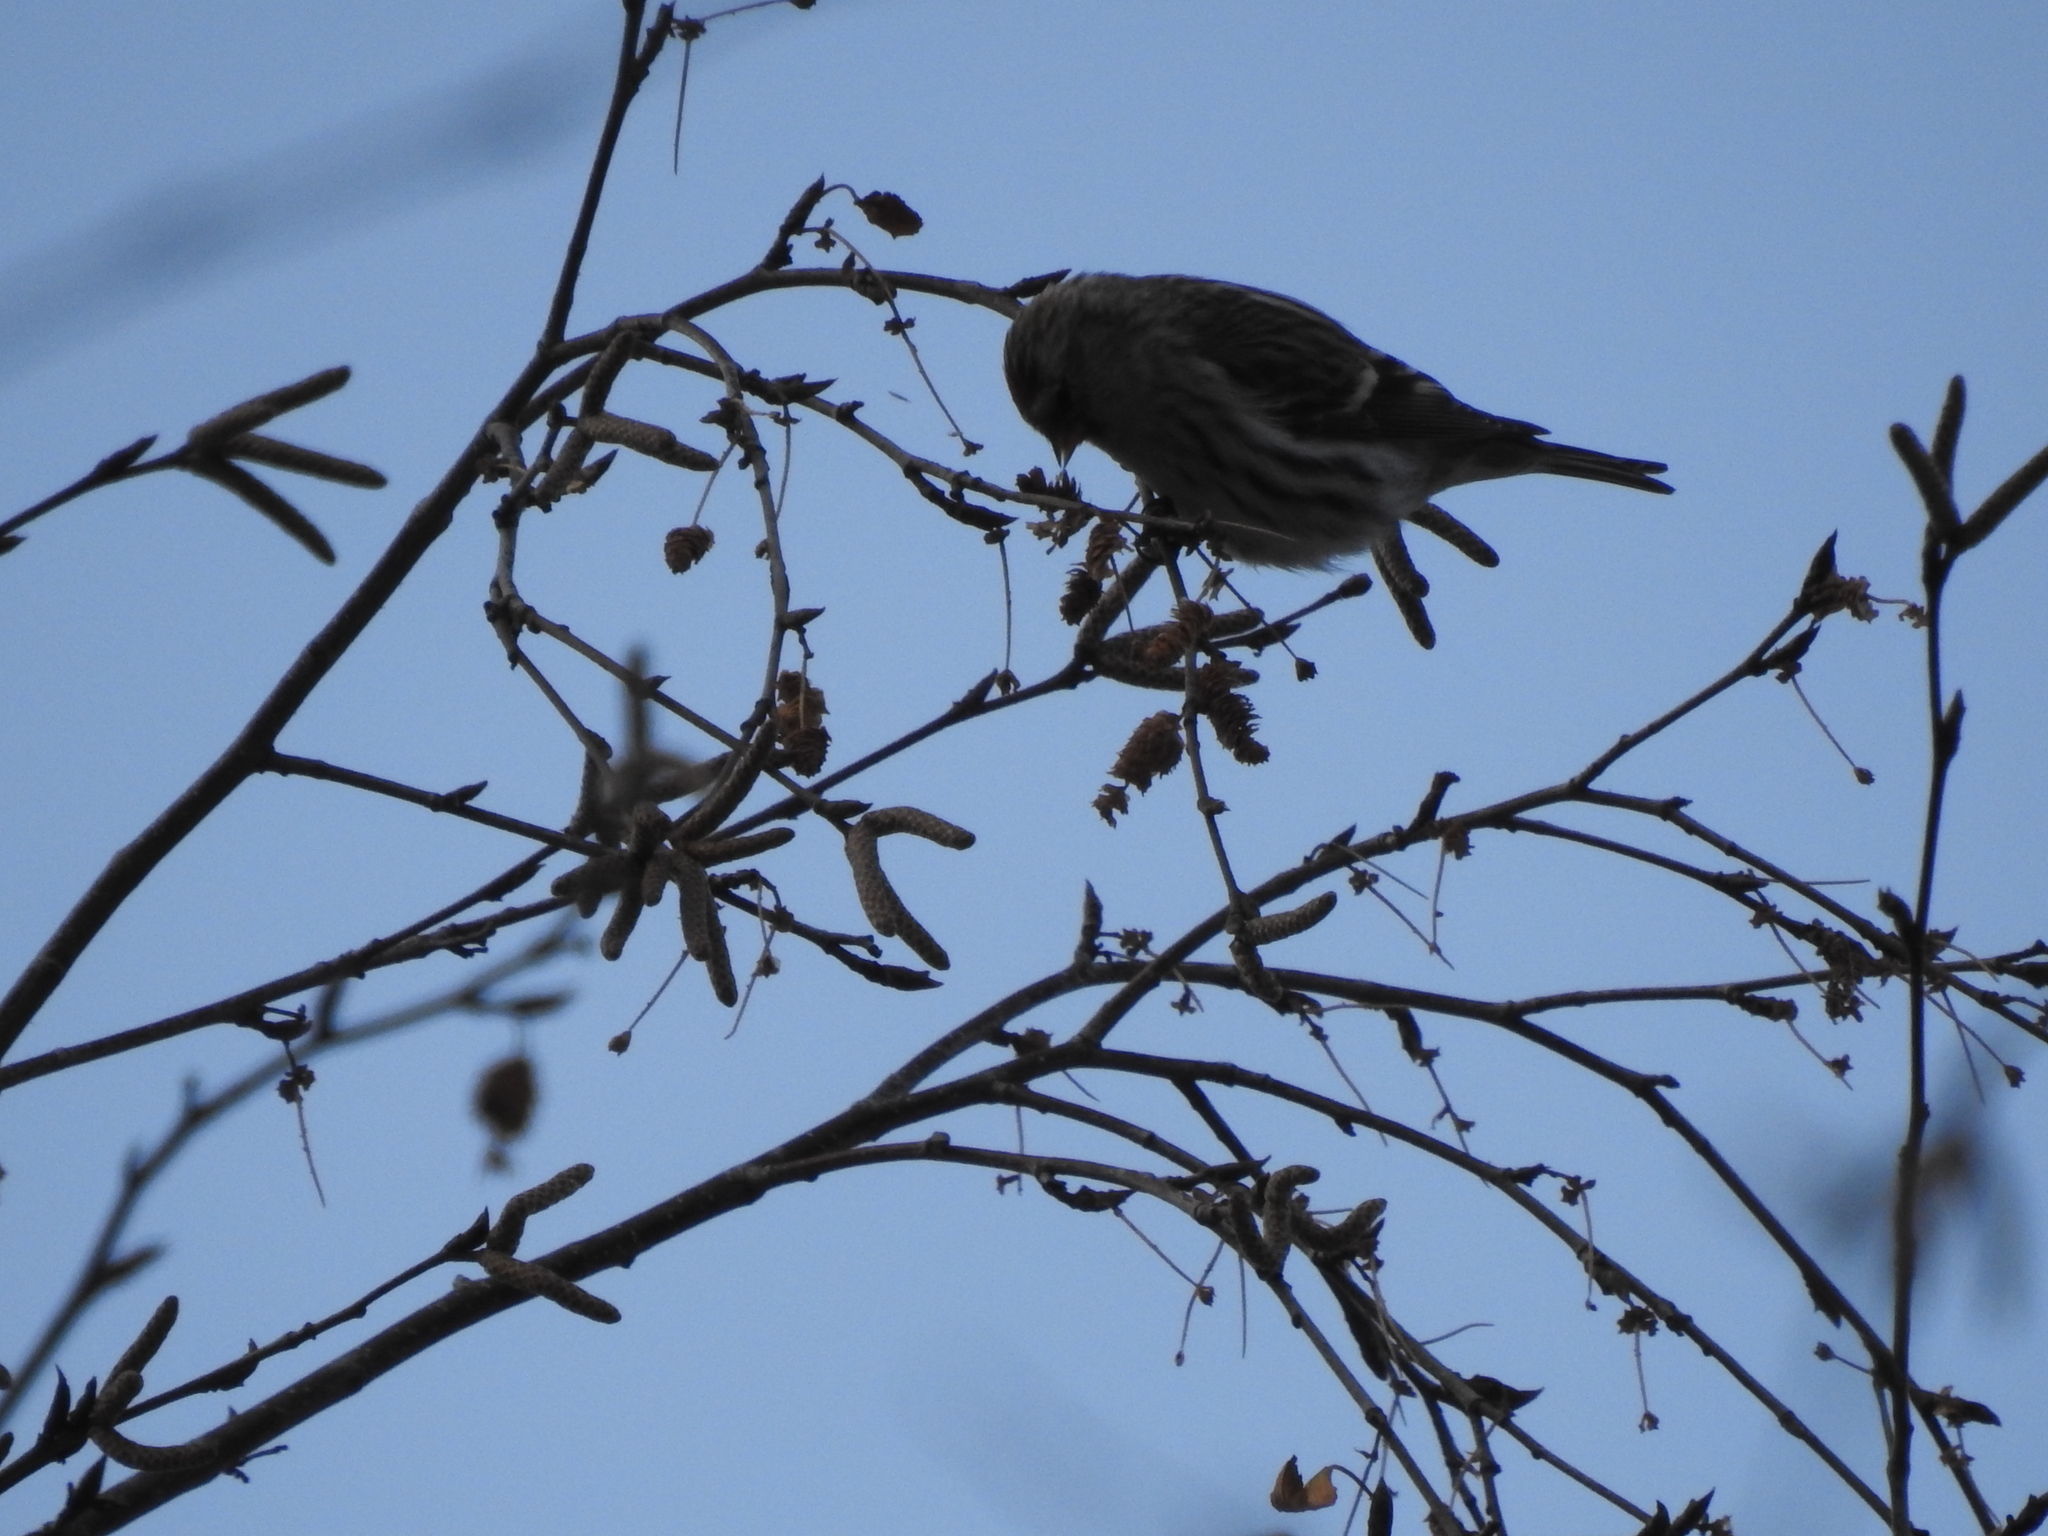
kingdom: Animalia
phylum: Chordata
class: Aves
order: Passeriformes
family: Fringillidae
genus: Acanthis
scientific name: Acanthis flammea
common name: Common redpoll
